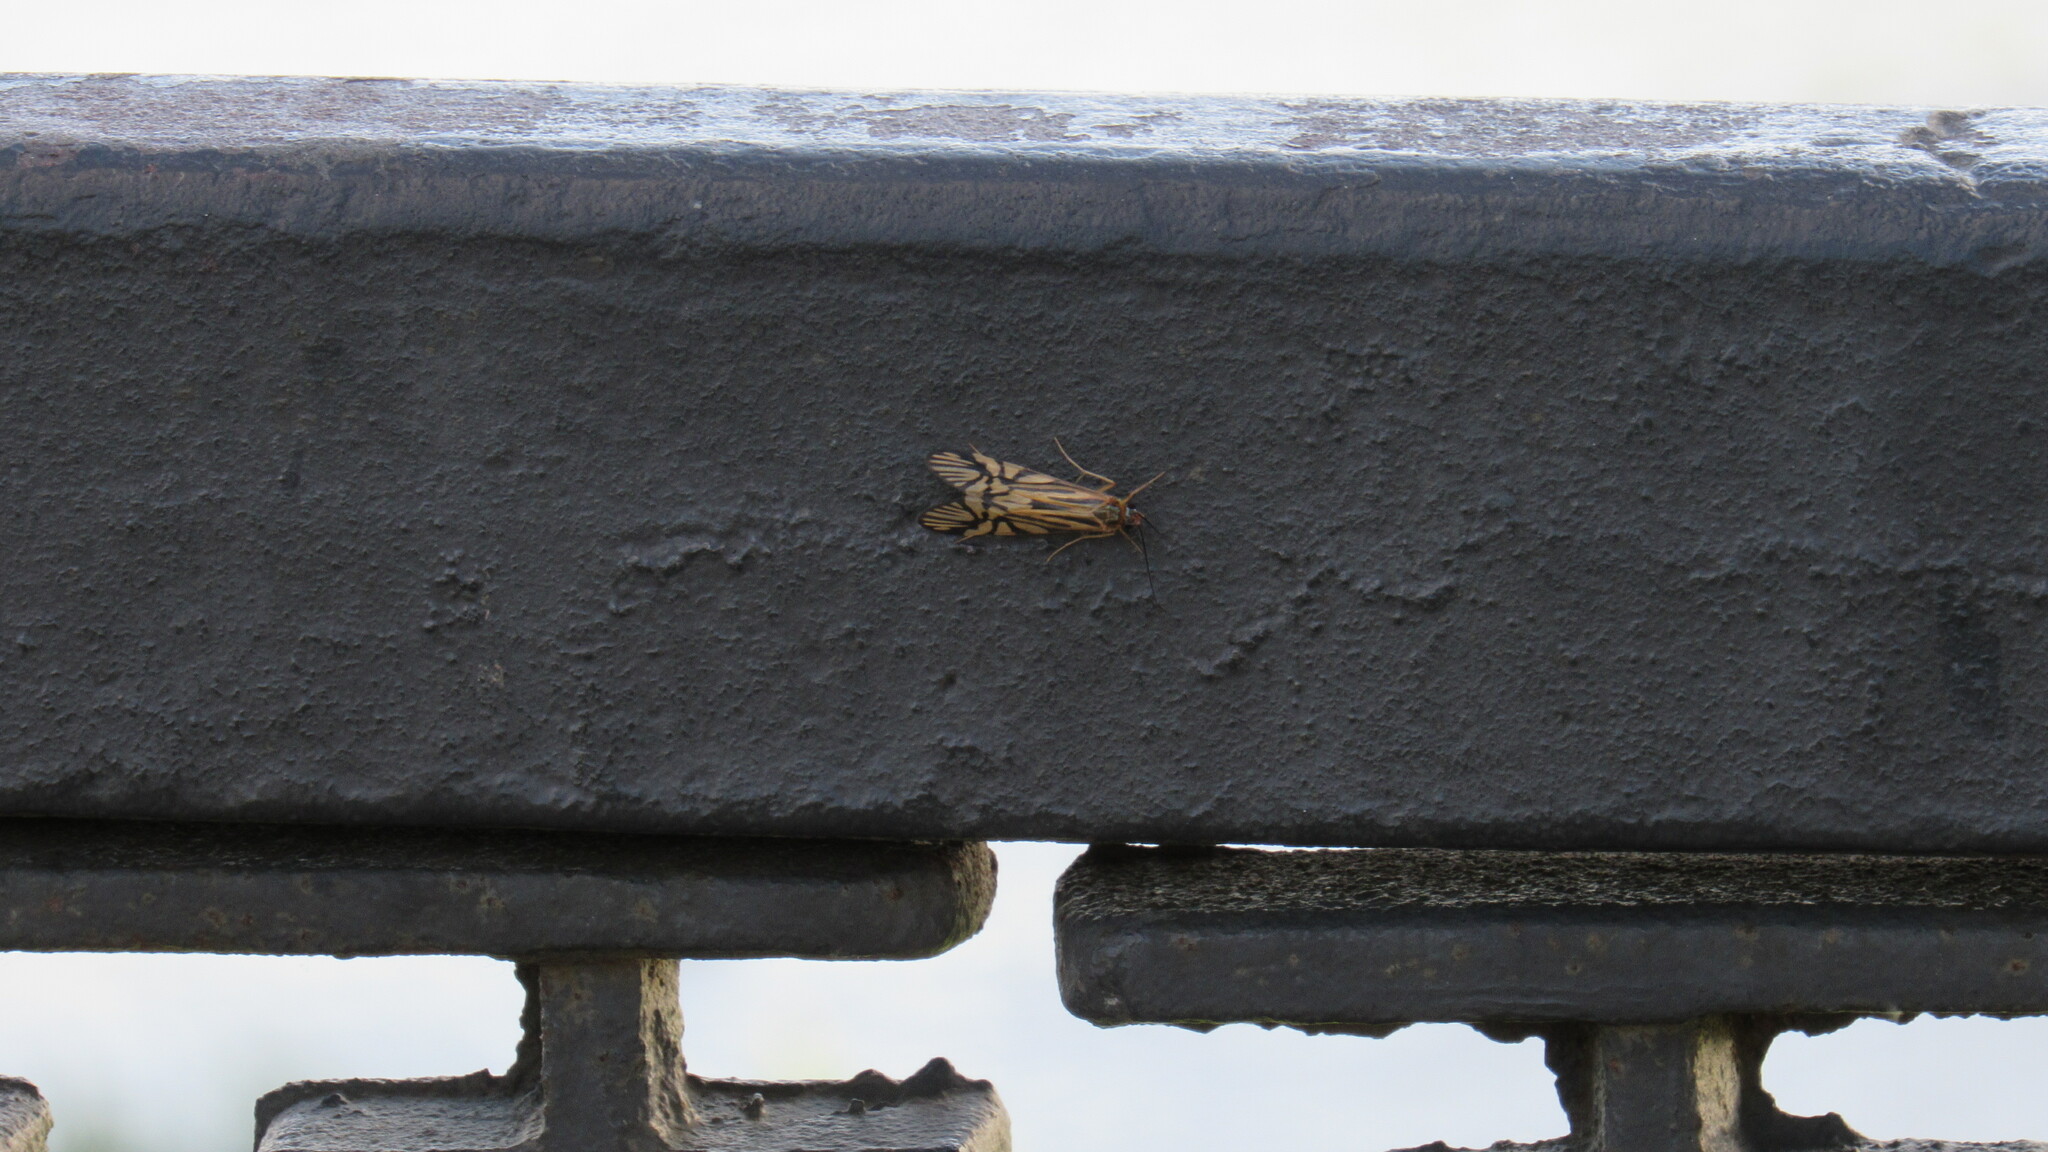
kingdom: Animalia
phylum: Arthropoda
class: Insecta
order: Trichoptera
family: Hydropsychidae
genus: Macrostemum
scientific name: Macrostemum radiatum
